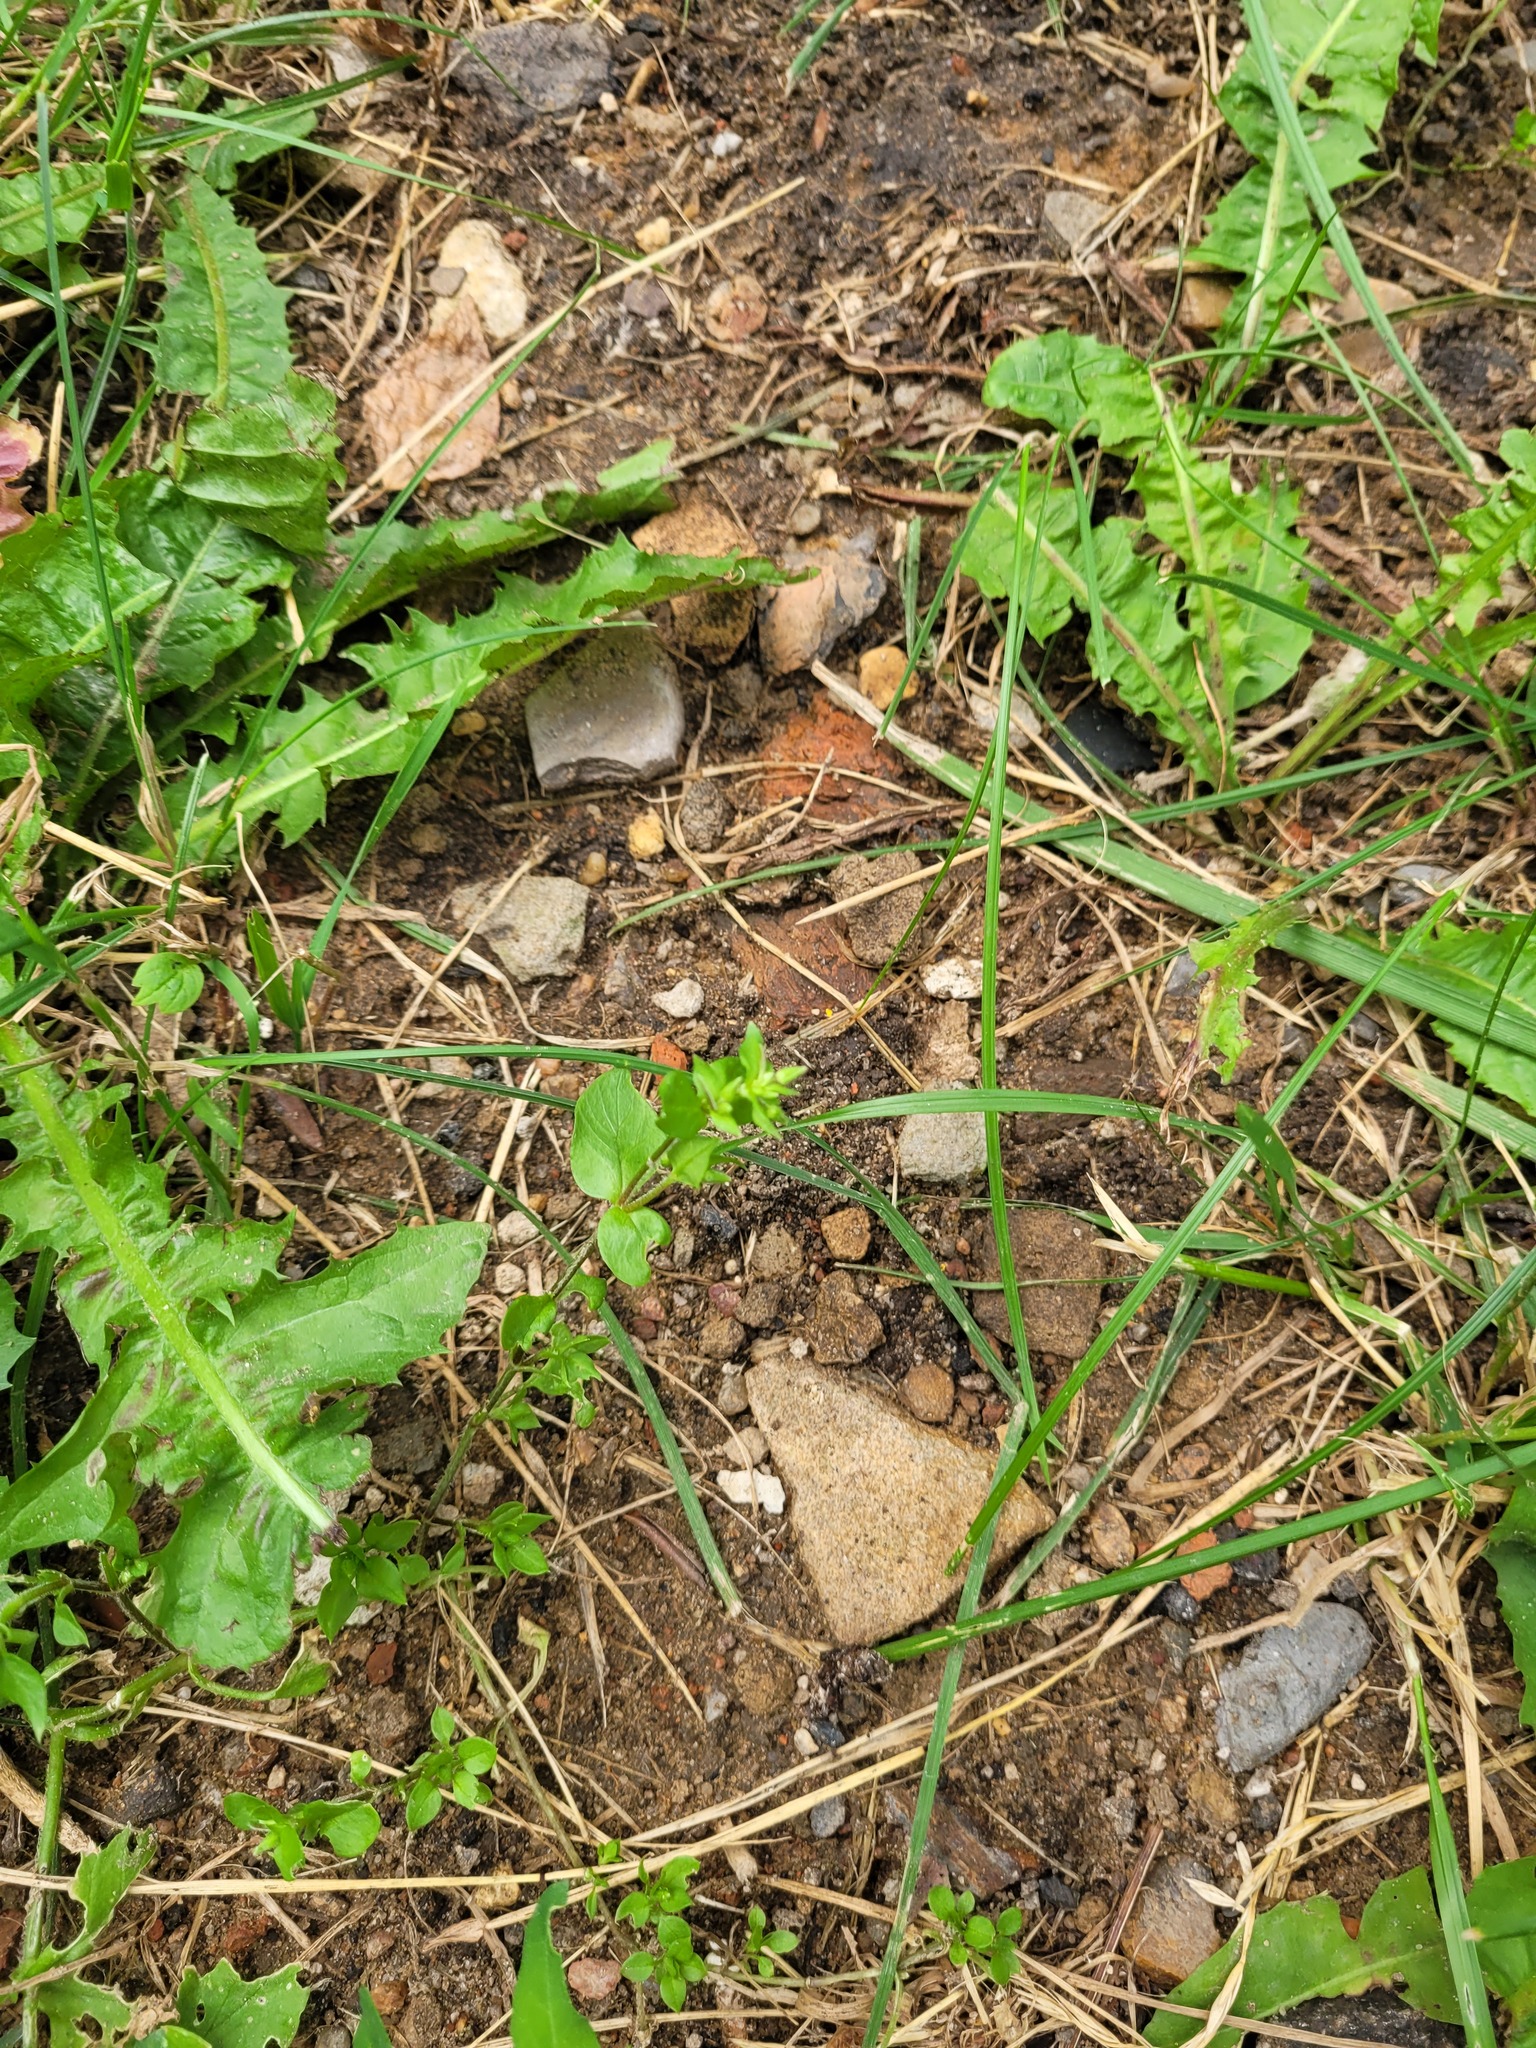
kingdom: Plantae
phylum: Tracheophyta
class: Magnoliopsida
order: Caryophyllales
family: Caryophyllaceae
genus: Stellaria
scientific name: Stellaria media
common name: Common chickweed
